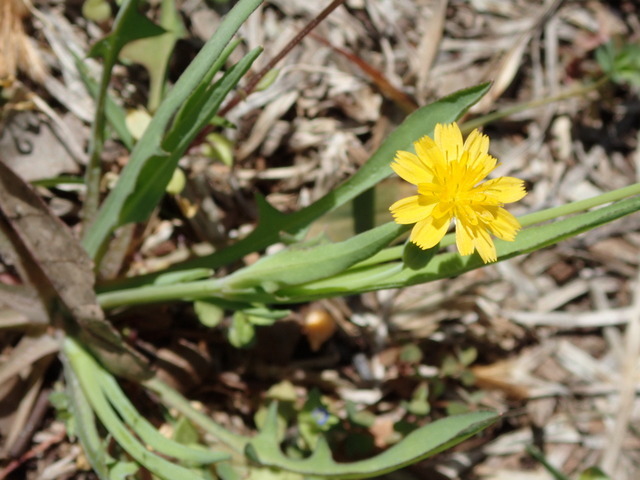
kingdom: Plantae
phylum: Tracheophyta
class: Magnoliopsida
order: Asterales
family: Asteraceae
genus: Krigia
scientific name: Krigia cespitosa
